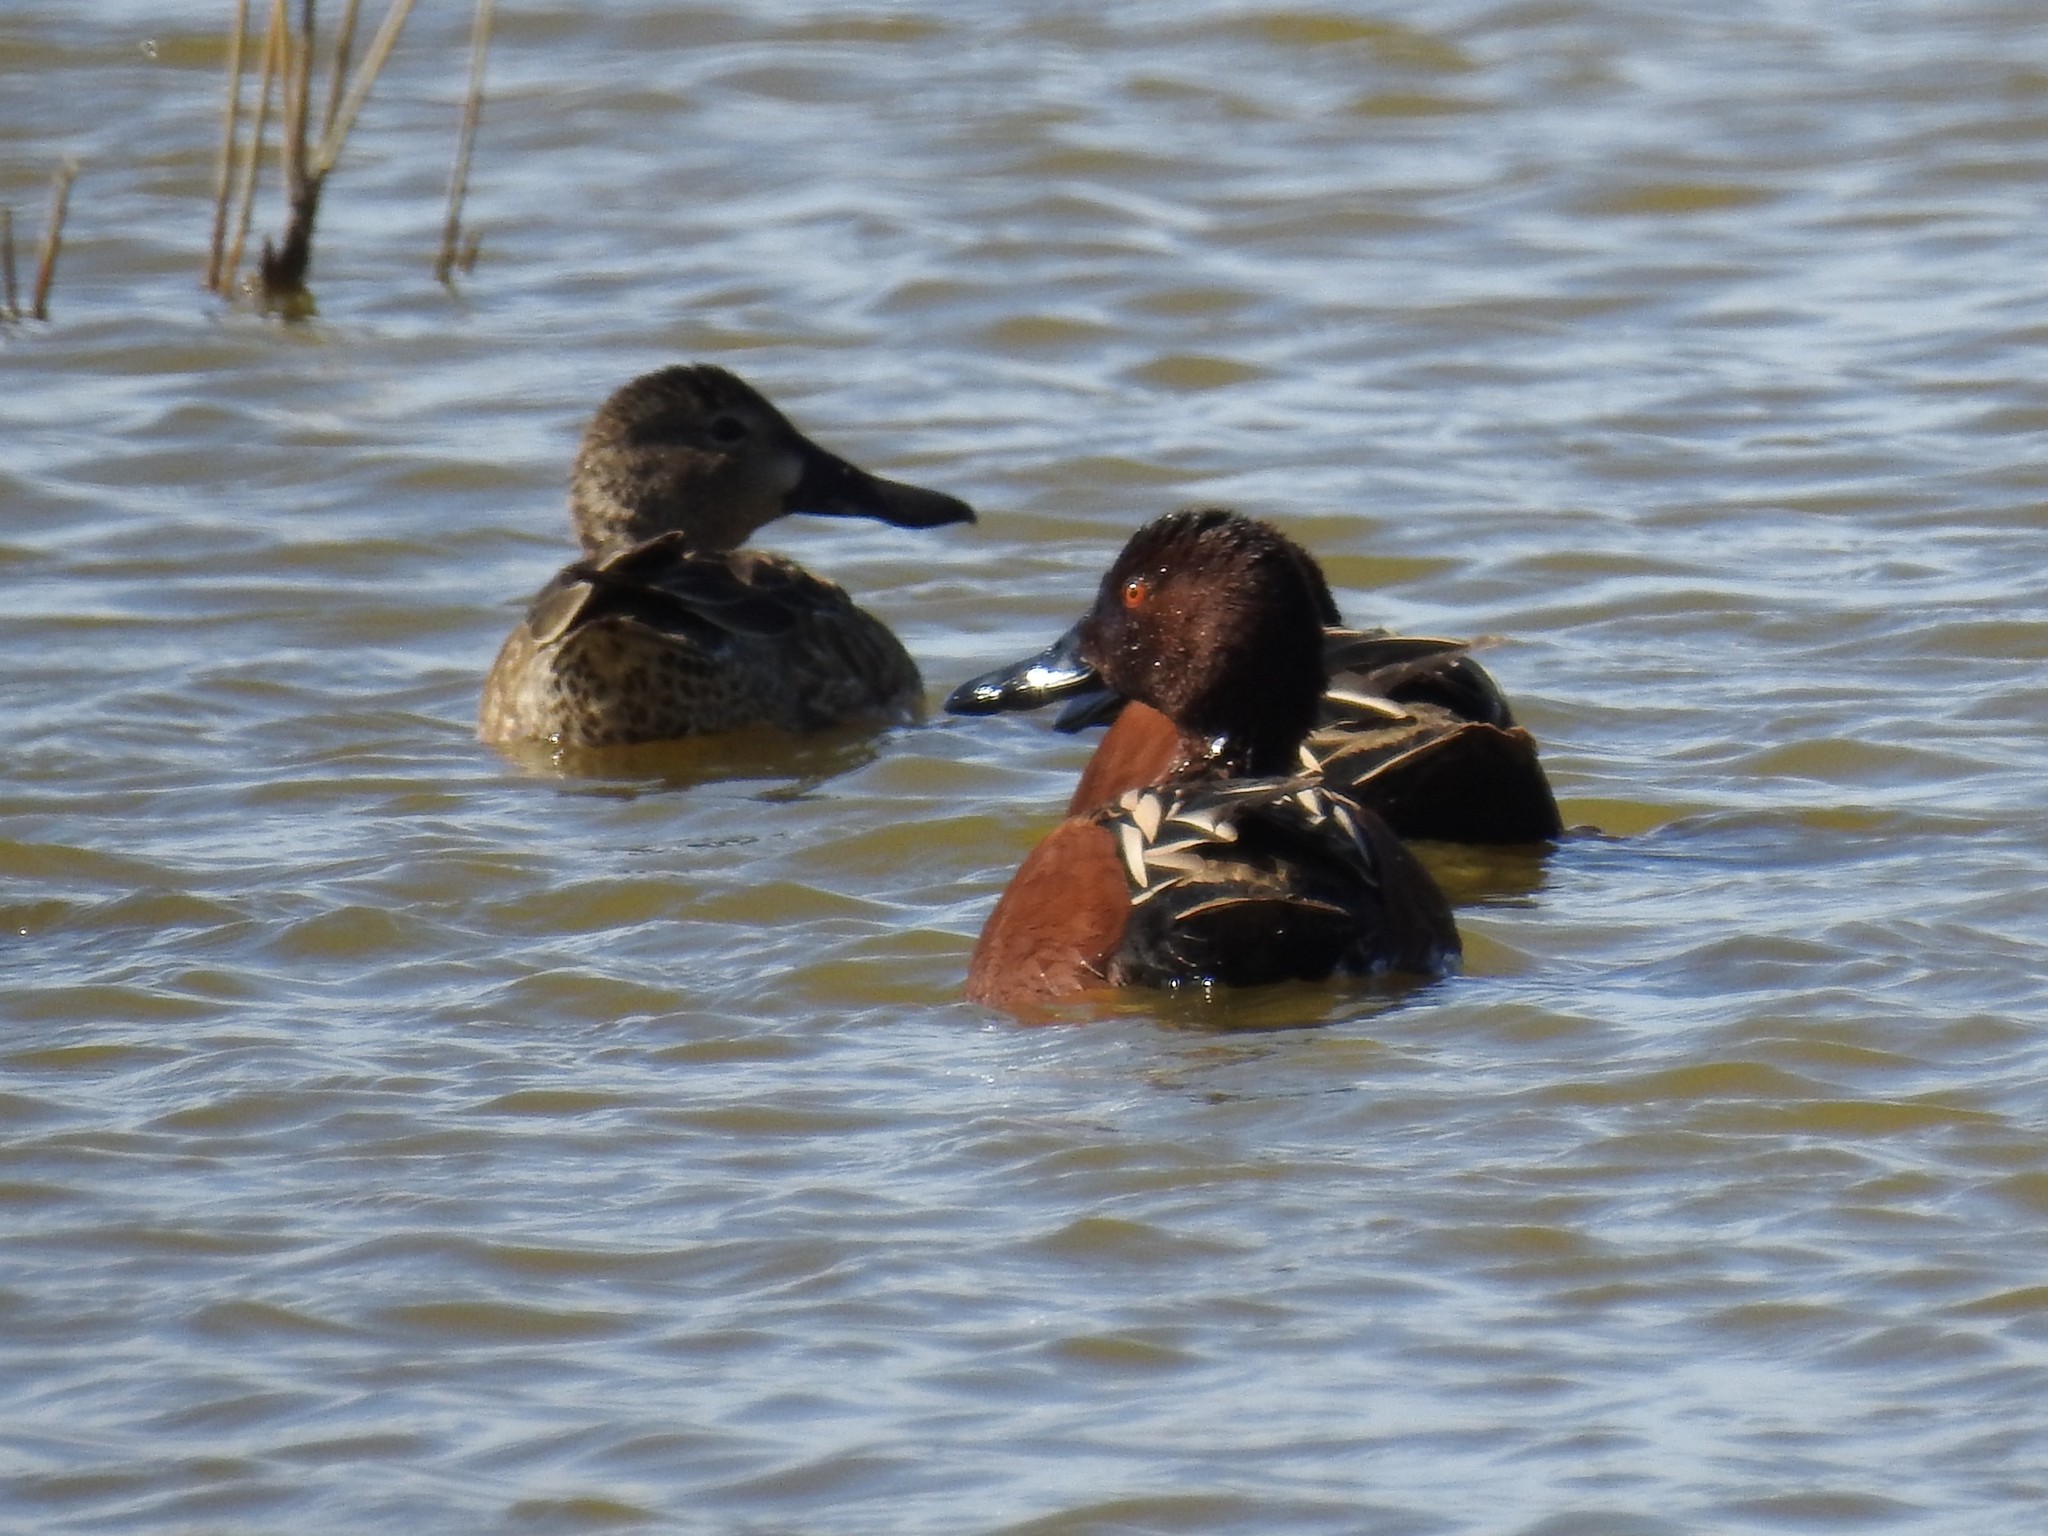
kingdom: Animalia
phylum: Chordata
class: Aves
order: Anseriformes
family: Anatidae
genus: Spatula
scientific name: Spatula cyanoptera
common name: Cinnamon teal
